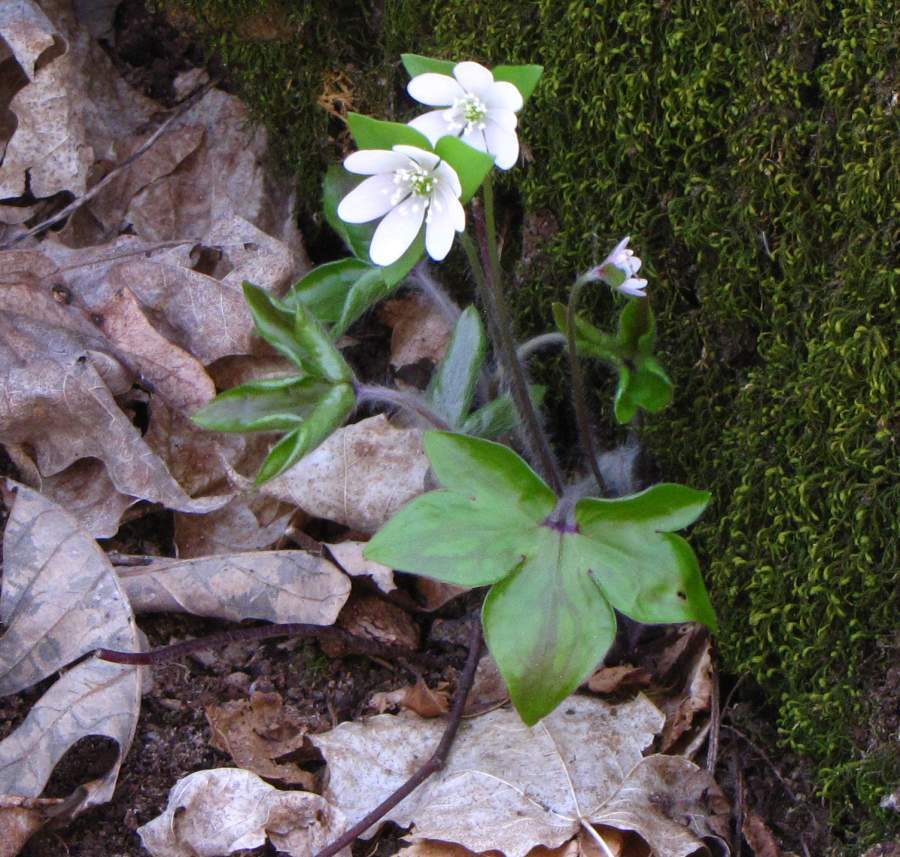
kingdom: Plantae
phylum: Tracheophyta
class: Magnoliopsida
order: Ranunculales
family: Ranunculaceae
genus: Hepatica
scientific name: Hepatica acutiloba
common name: Sharp-lobed hepatica
